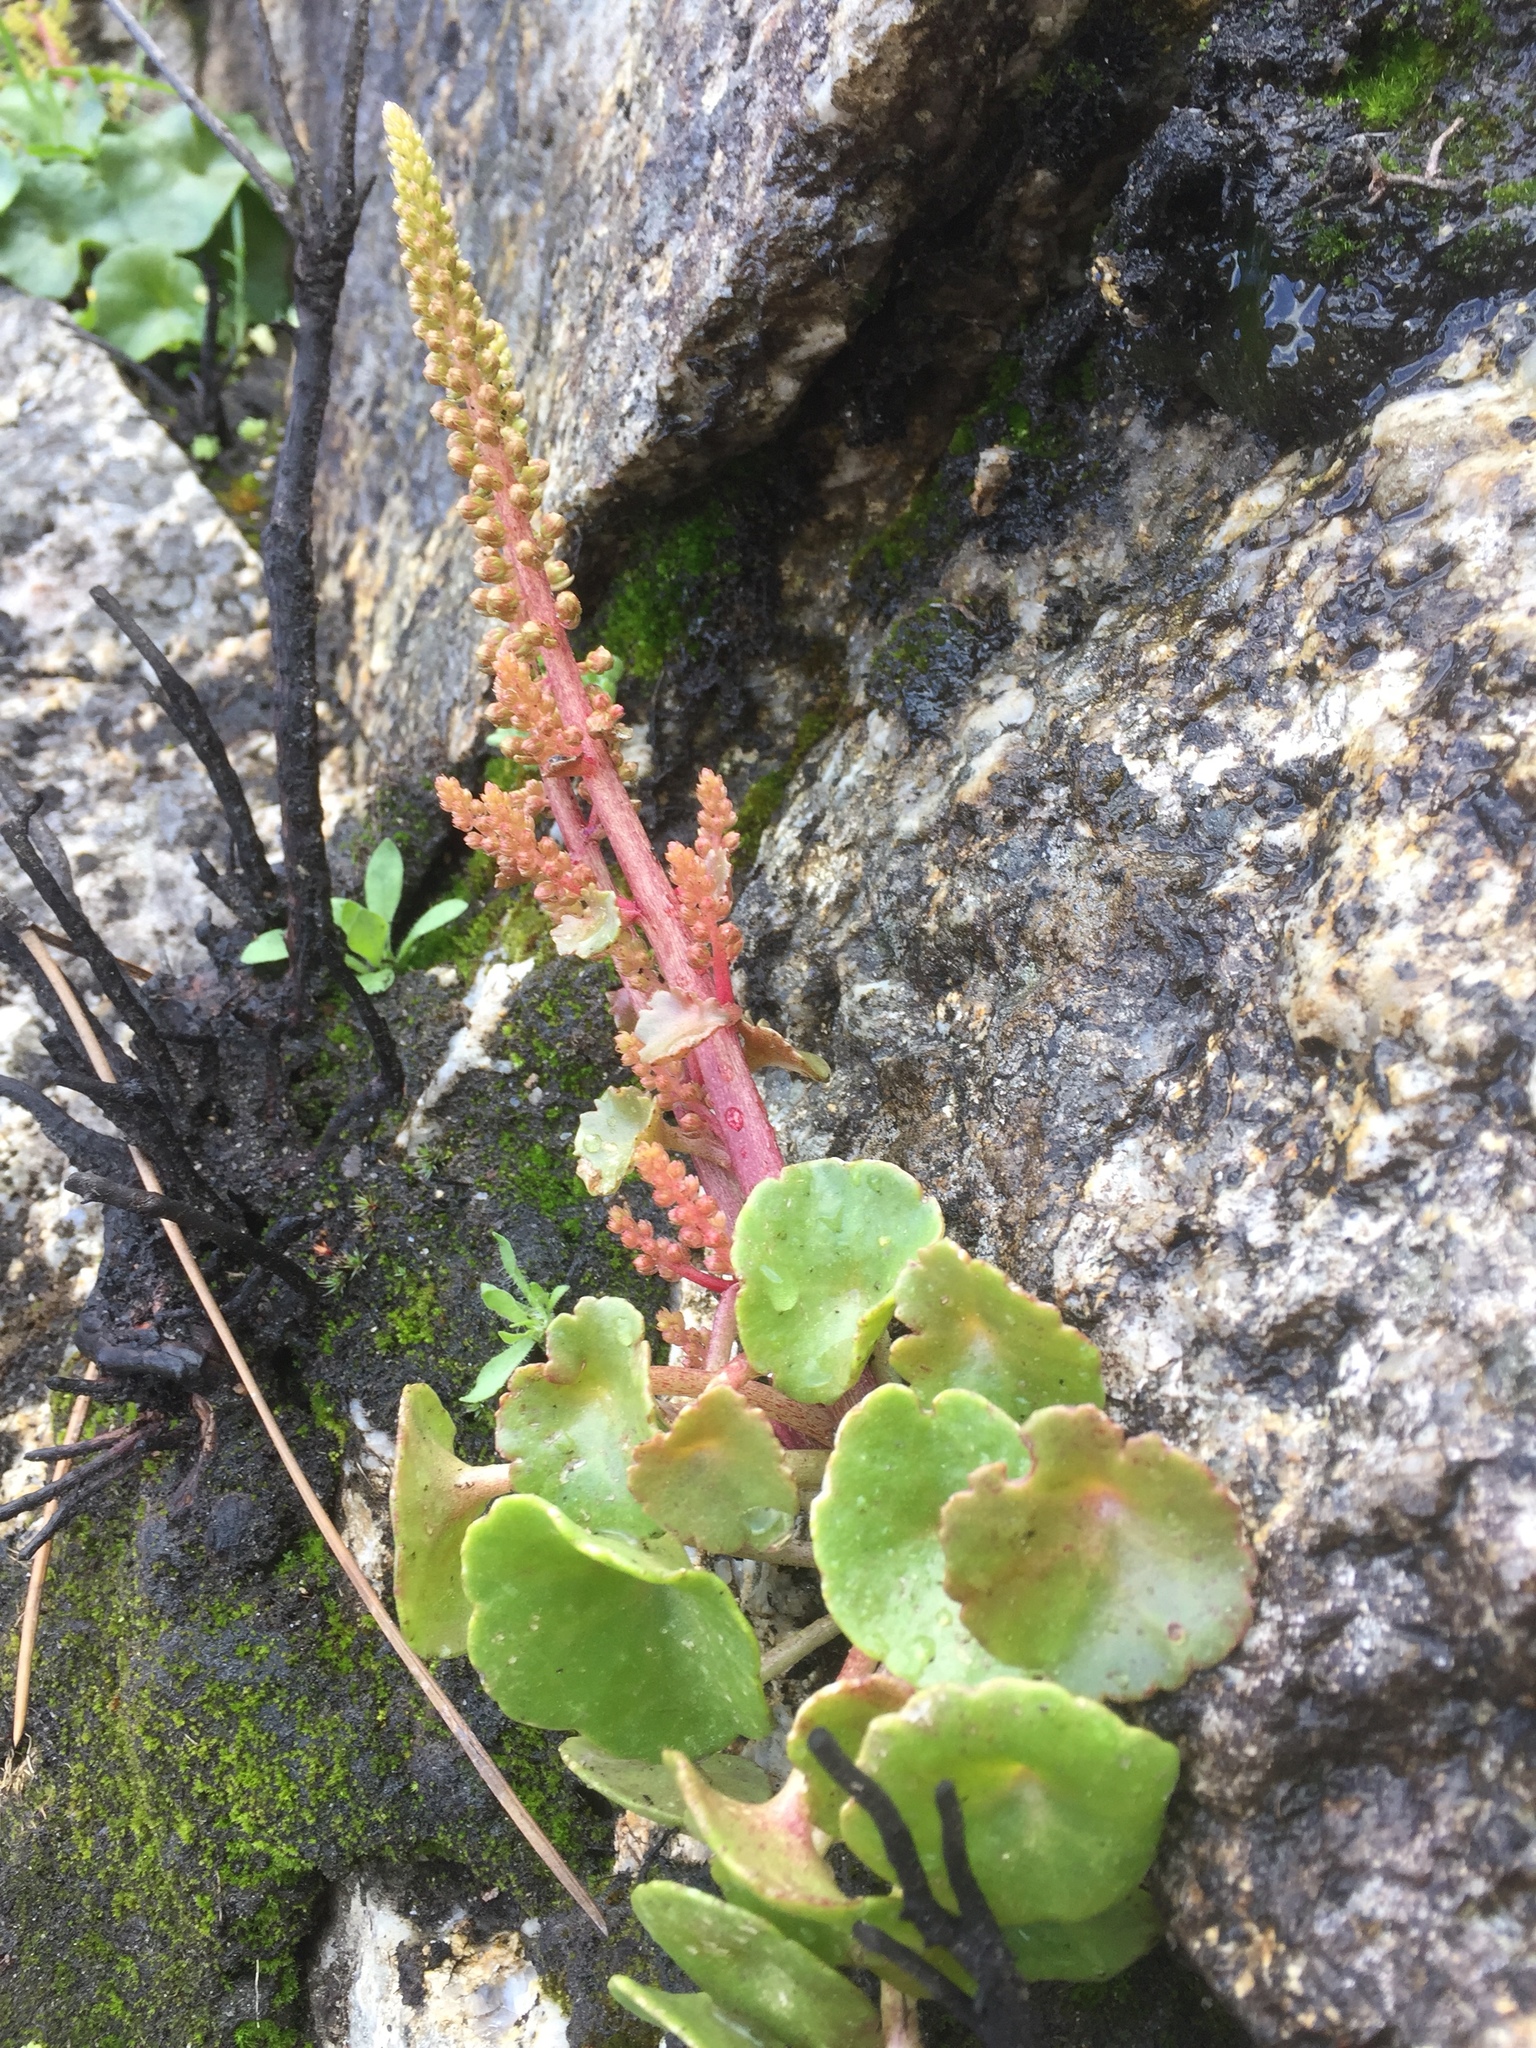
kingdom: Plantae
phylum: Tracheophyta
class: Magnoliopsida
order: Saxifragales
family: Crassulaceae
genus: Umbilicus
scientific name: Umbilicus rupestris
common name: Navelwort
